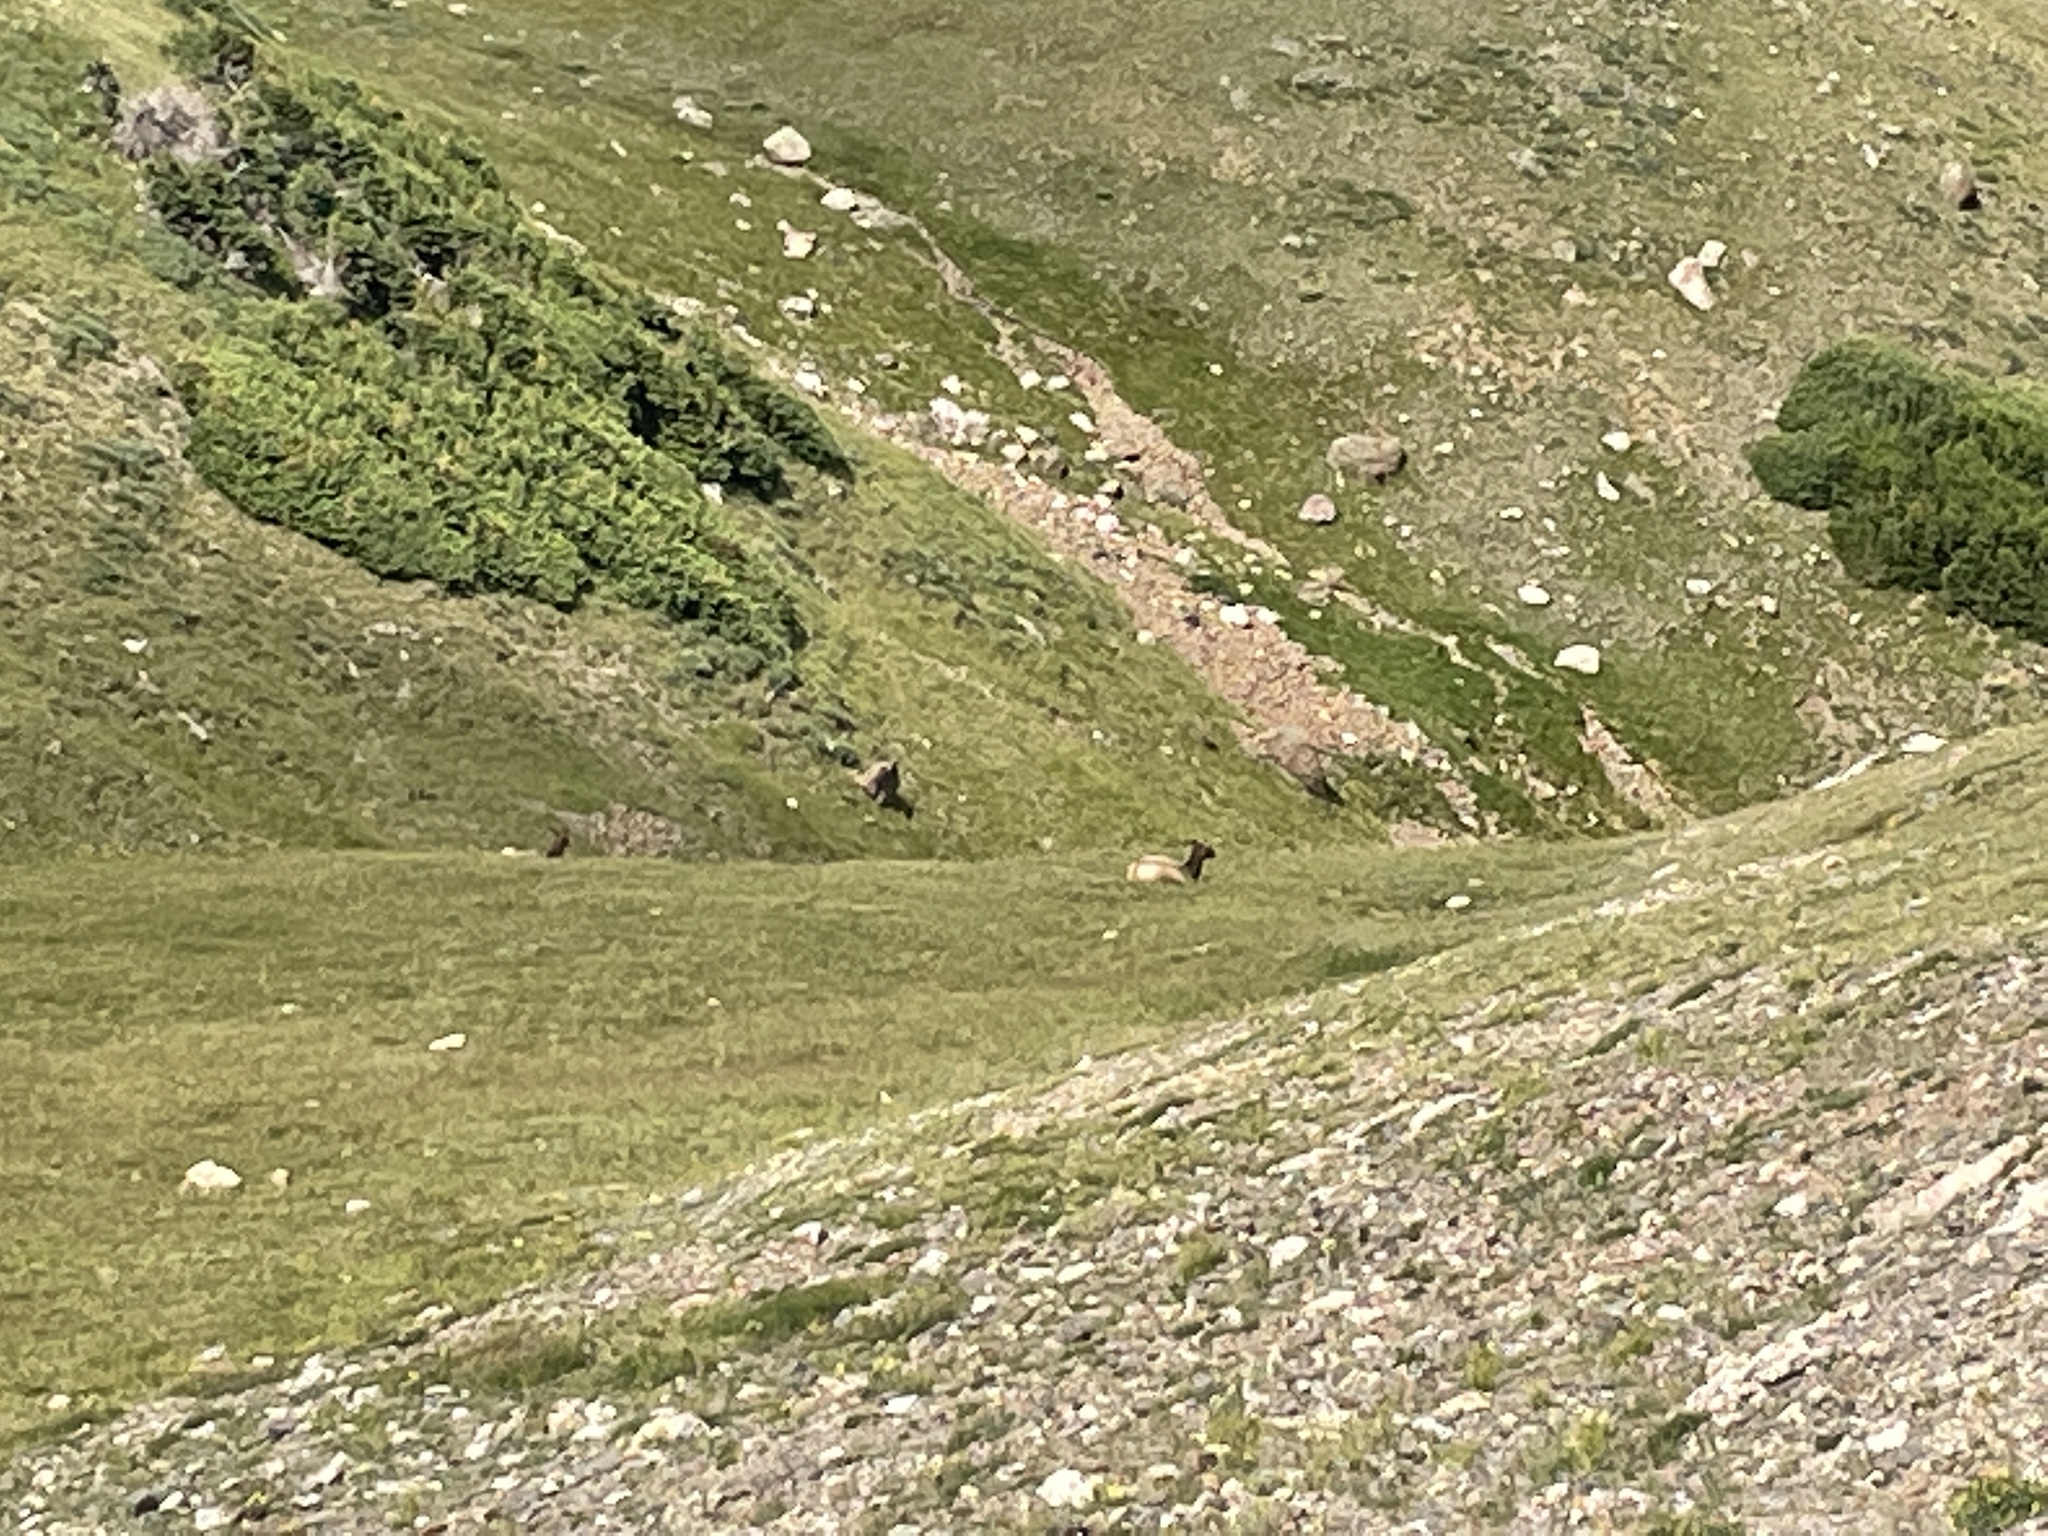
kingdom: Animalia
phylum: Chordata
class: Mammalia
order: Artiodactyla
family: Cervidae
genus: Cervus
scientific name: Cervus elaphus
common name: Red deer
